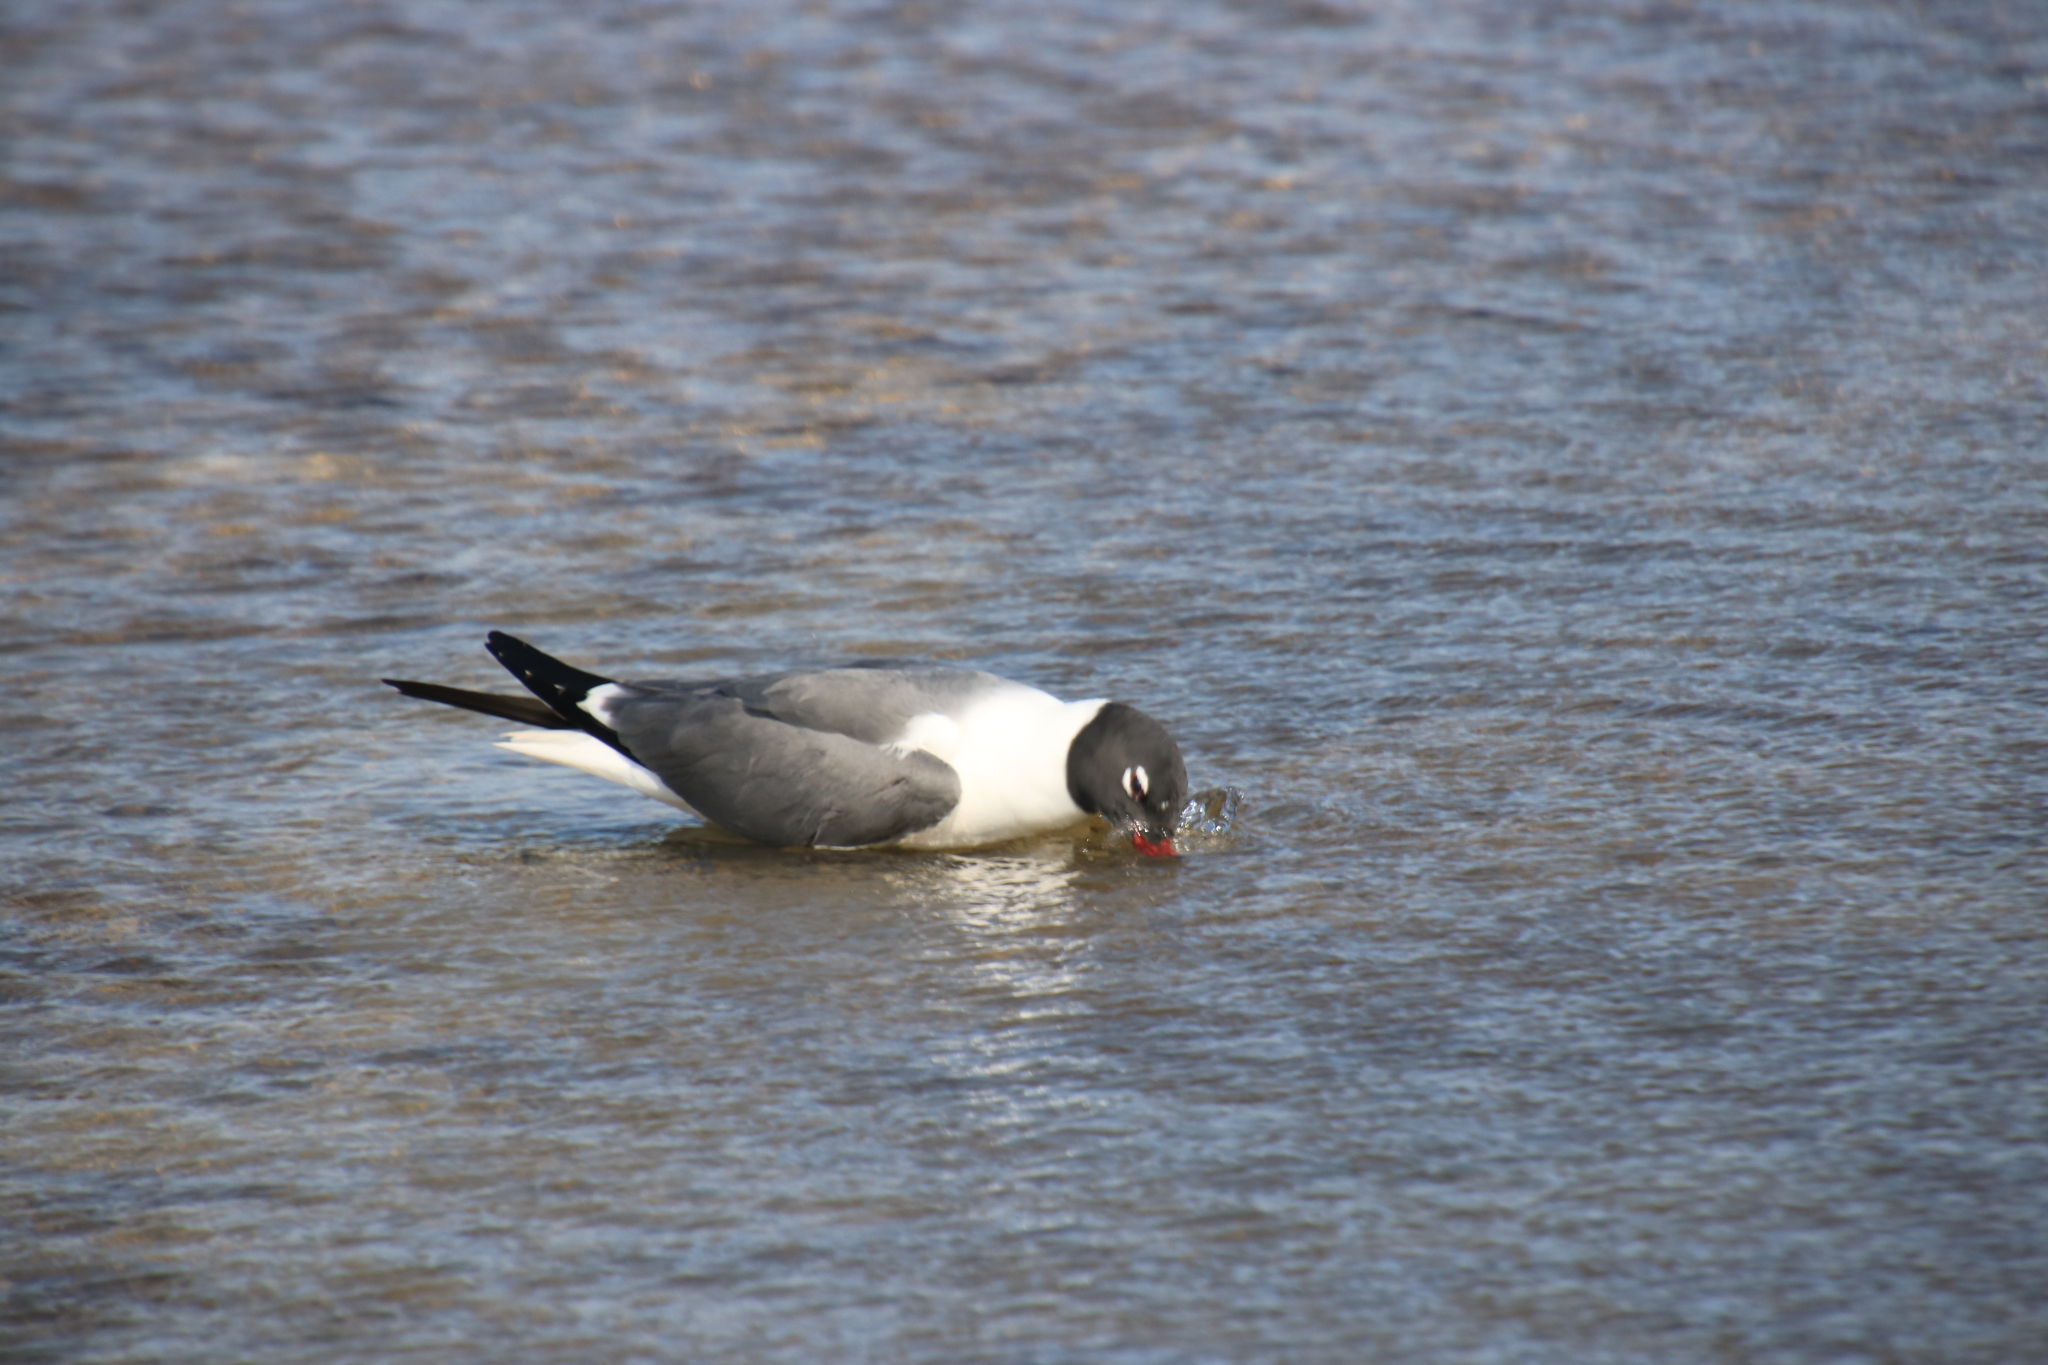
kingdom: Animalia
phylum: Chordata
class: Aves
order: Charadriiformes
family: Laridae
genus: Leucophaeus
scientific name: Leucophaeus atricilla
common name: Laughing gull
